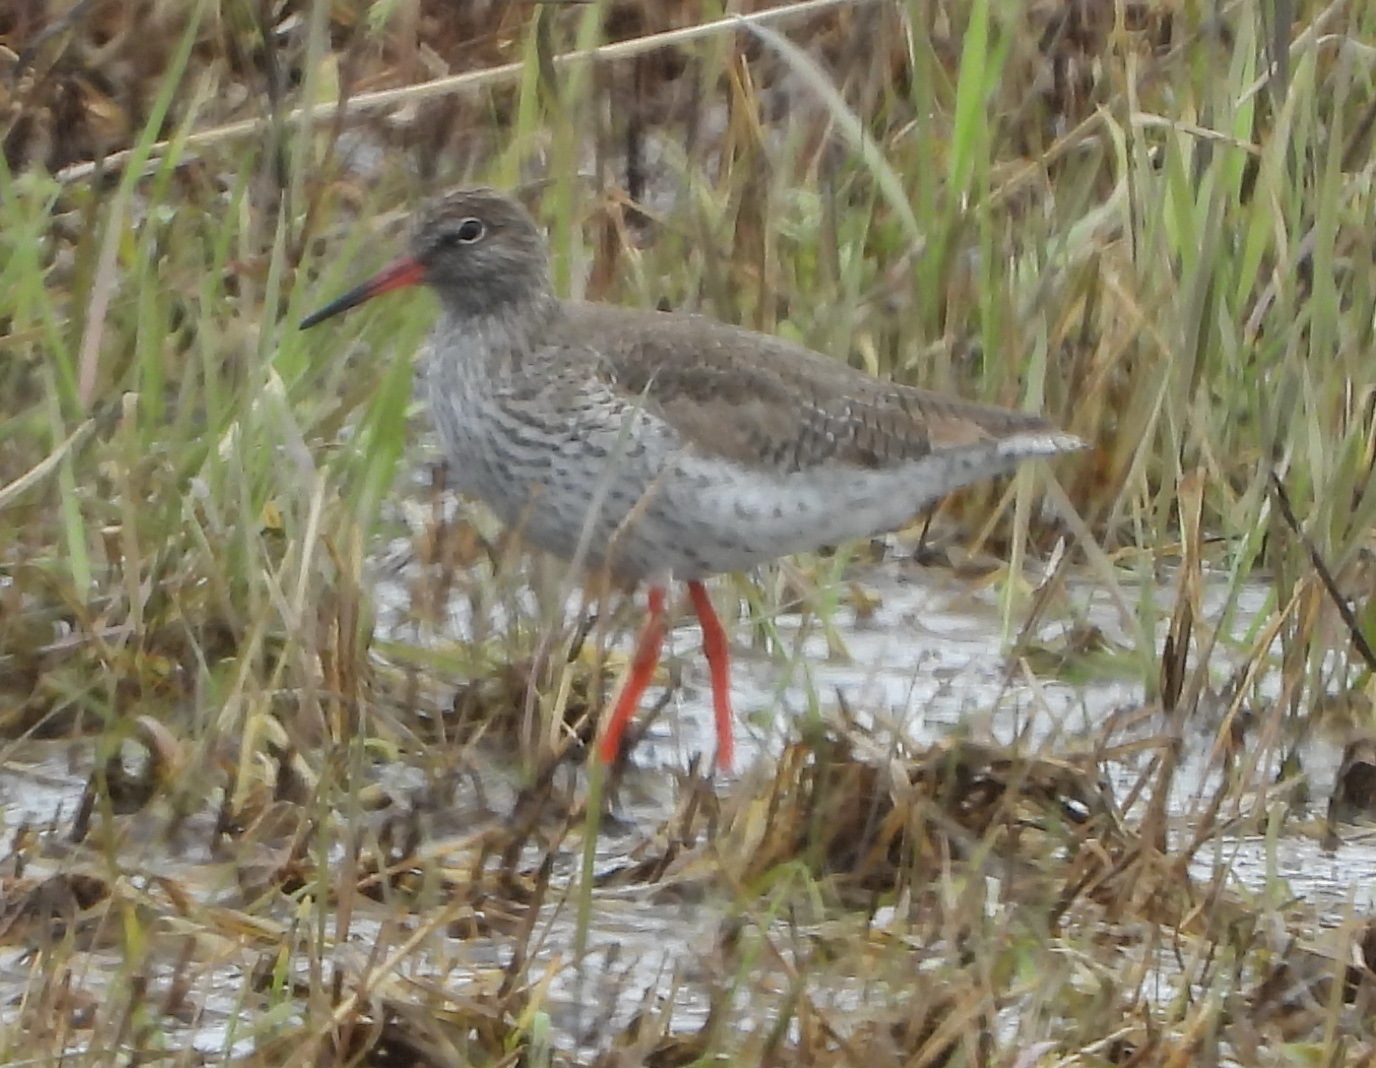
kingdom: Animalia
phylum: Chordata
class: Aves
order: Charadriiformes
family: Scolopacidae
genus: Tringa
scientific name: Tringa totanus
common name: Common redshank
